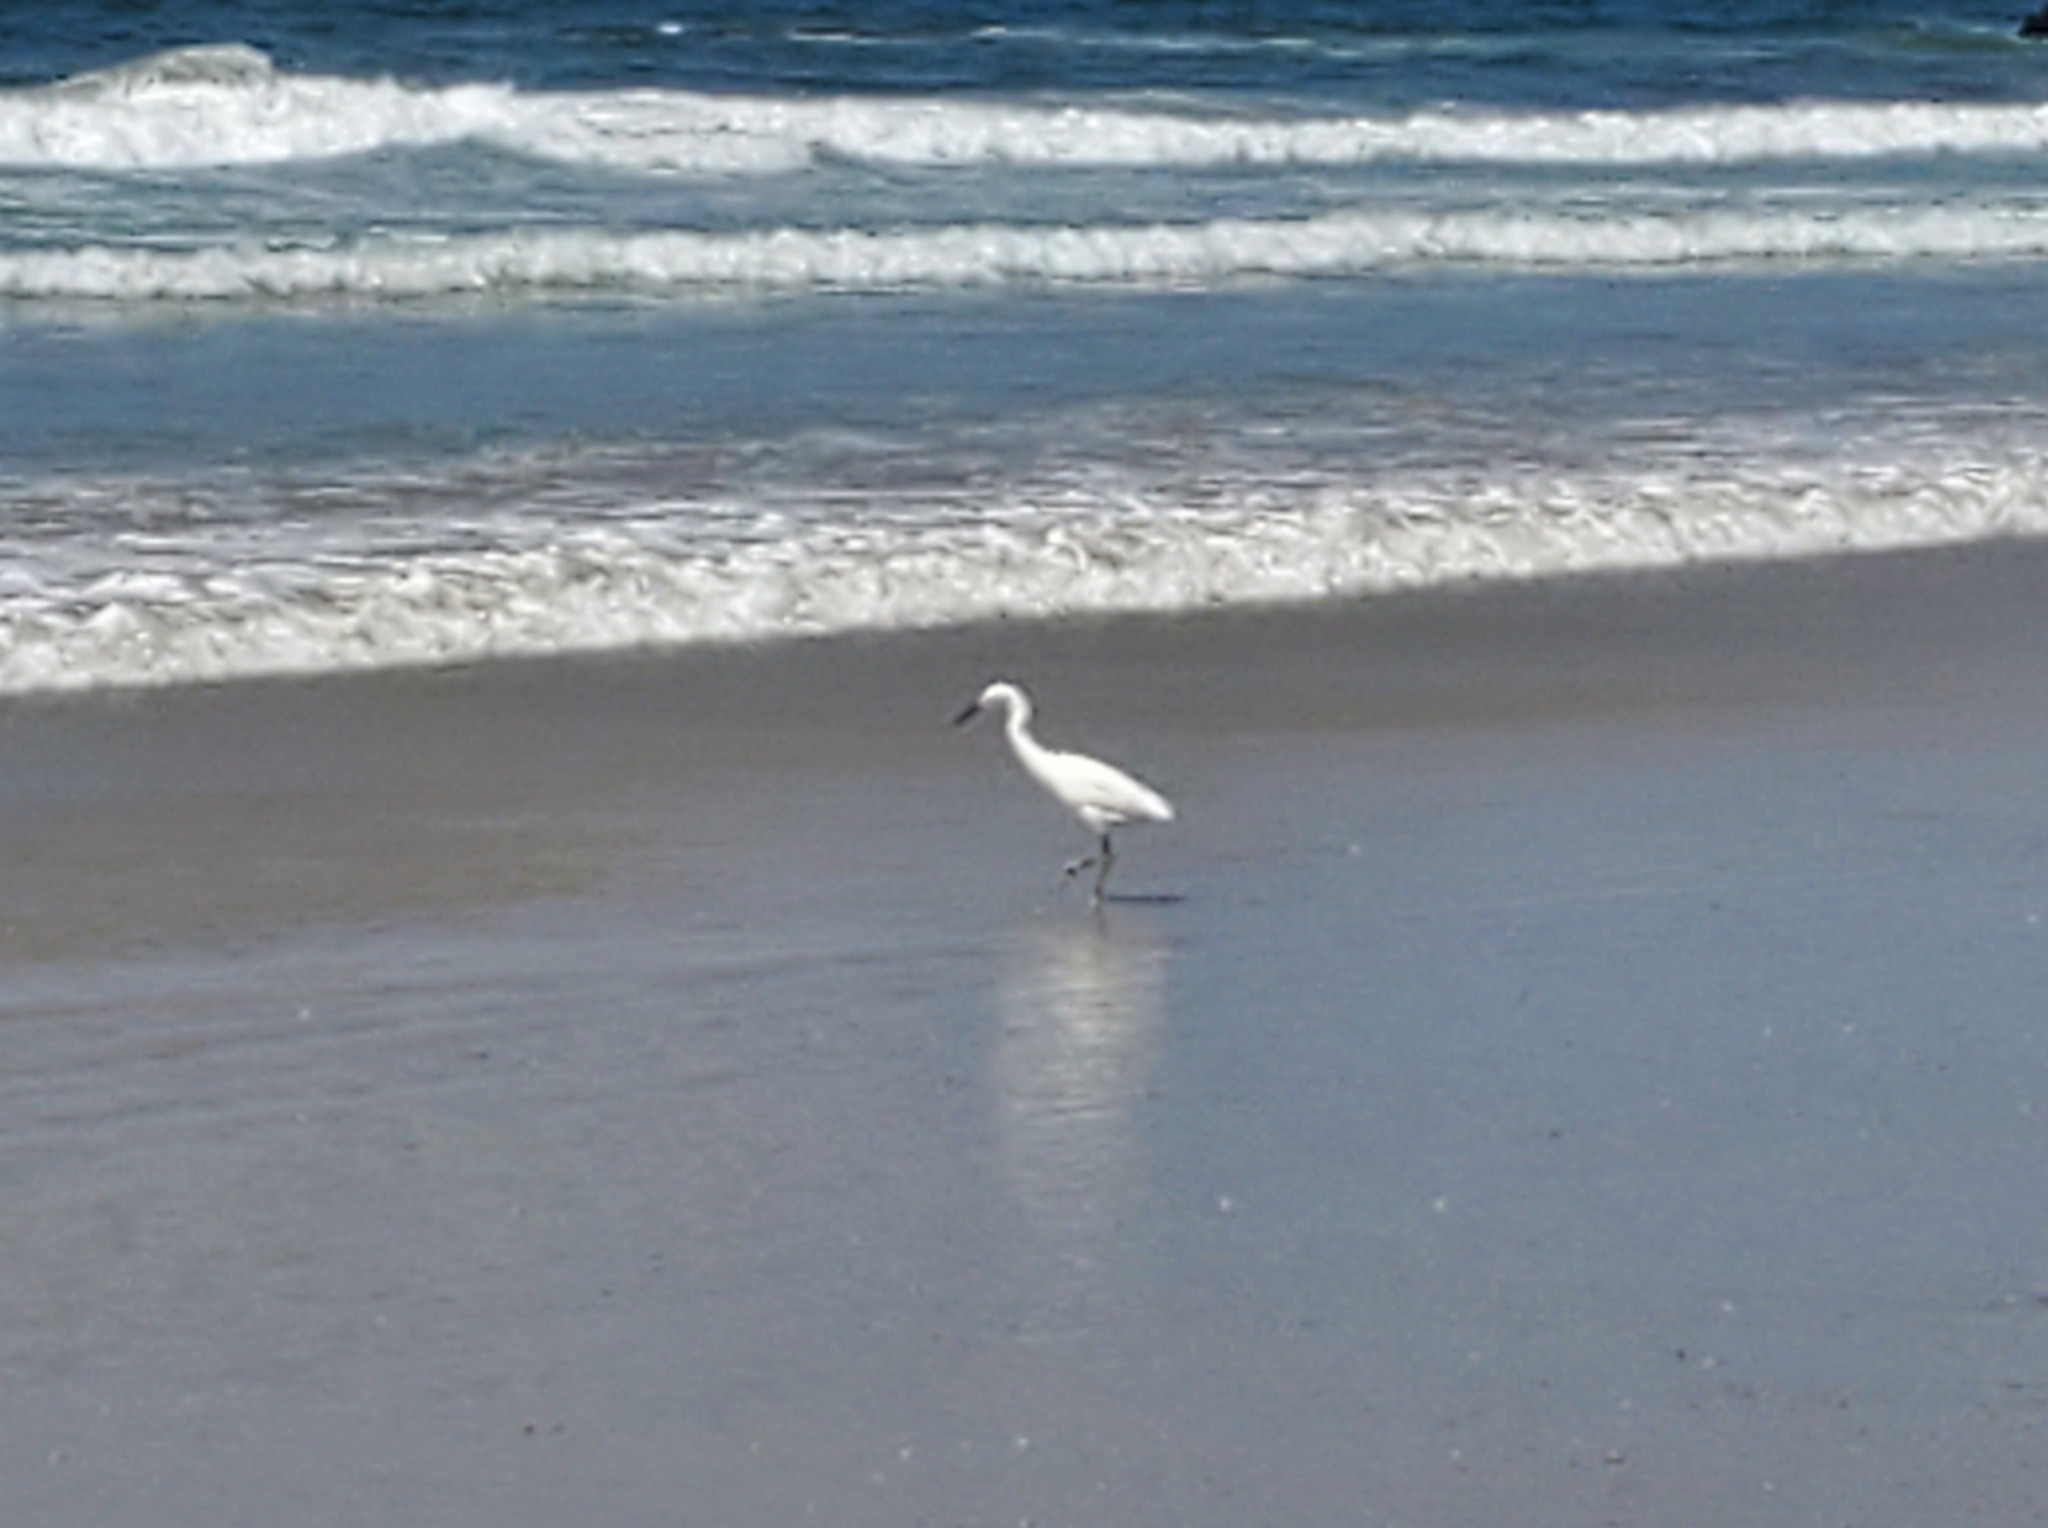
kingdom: Animalia
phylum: Chordata
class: Aves
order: Pelecaniformes
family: Ardeidae
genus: Egretta
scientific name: Egretta thula
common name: Snowy egret
